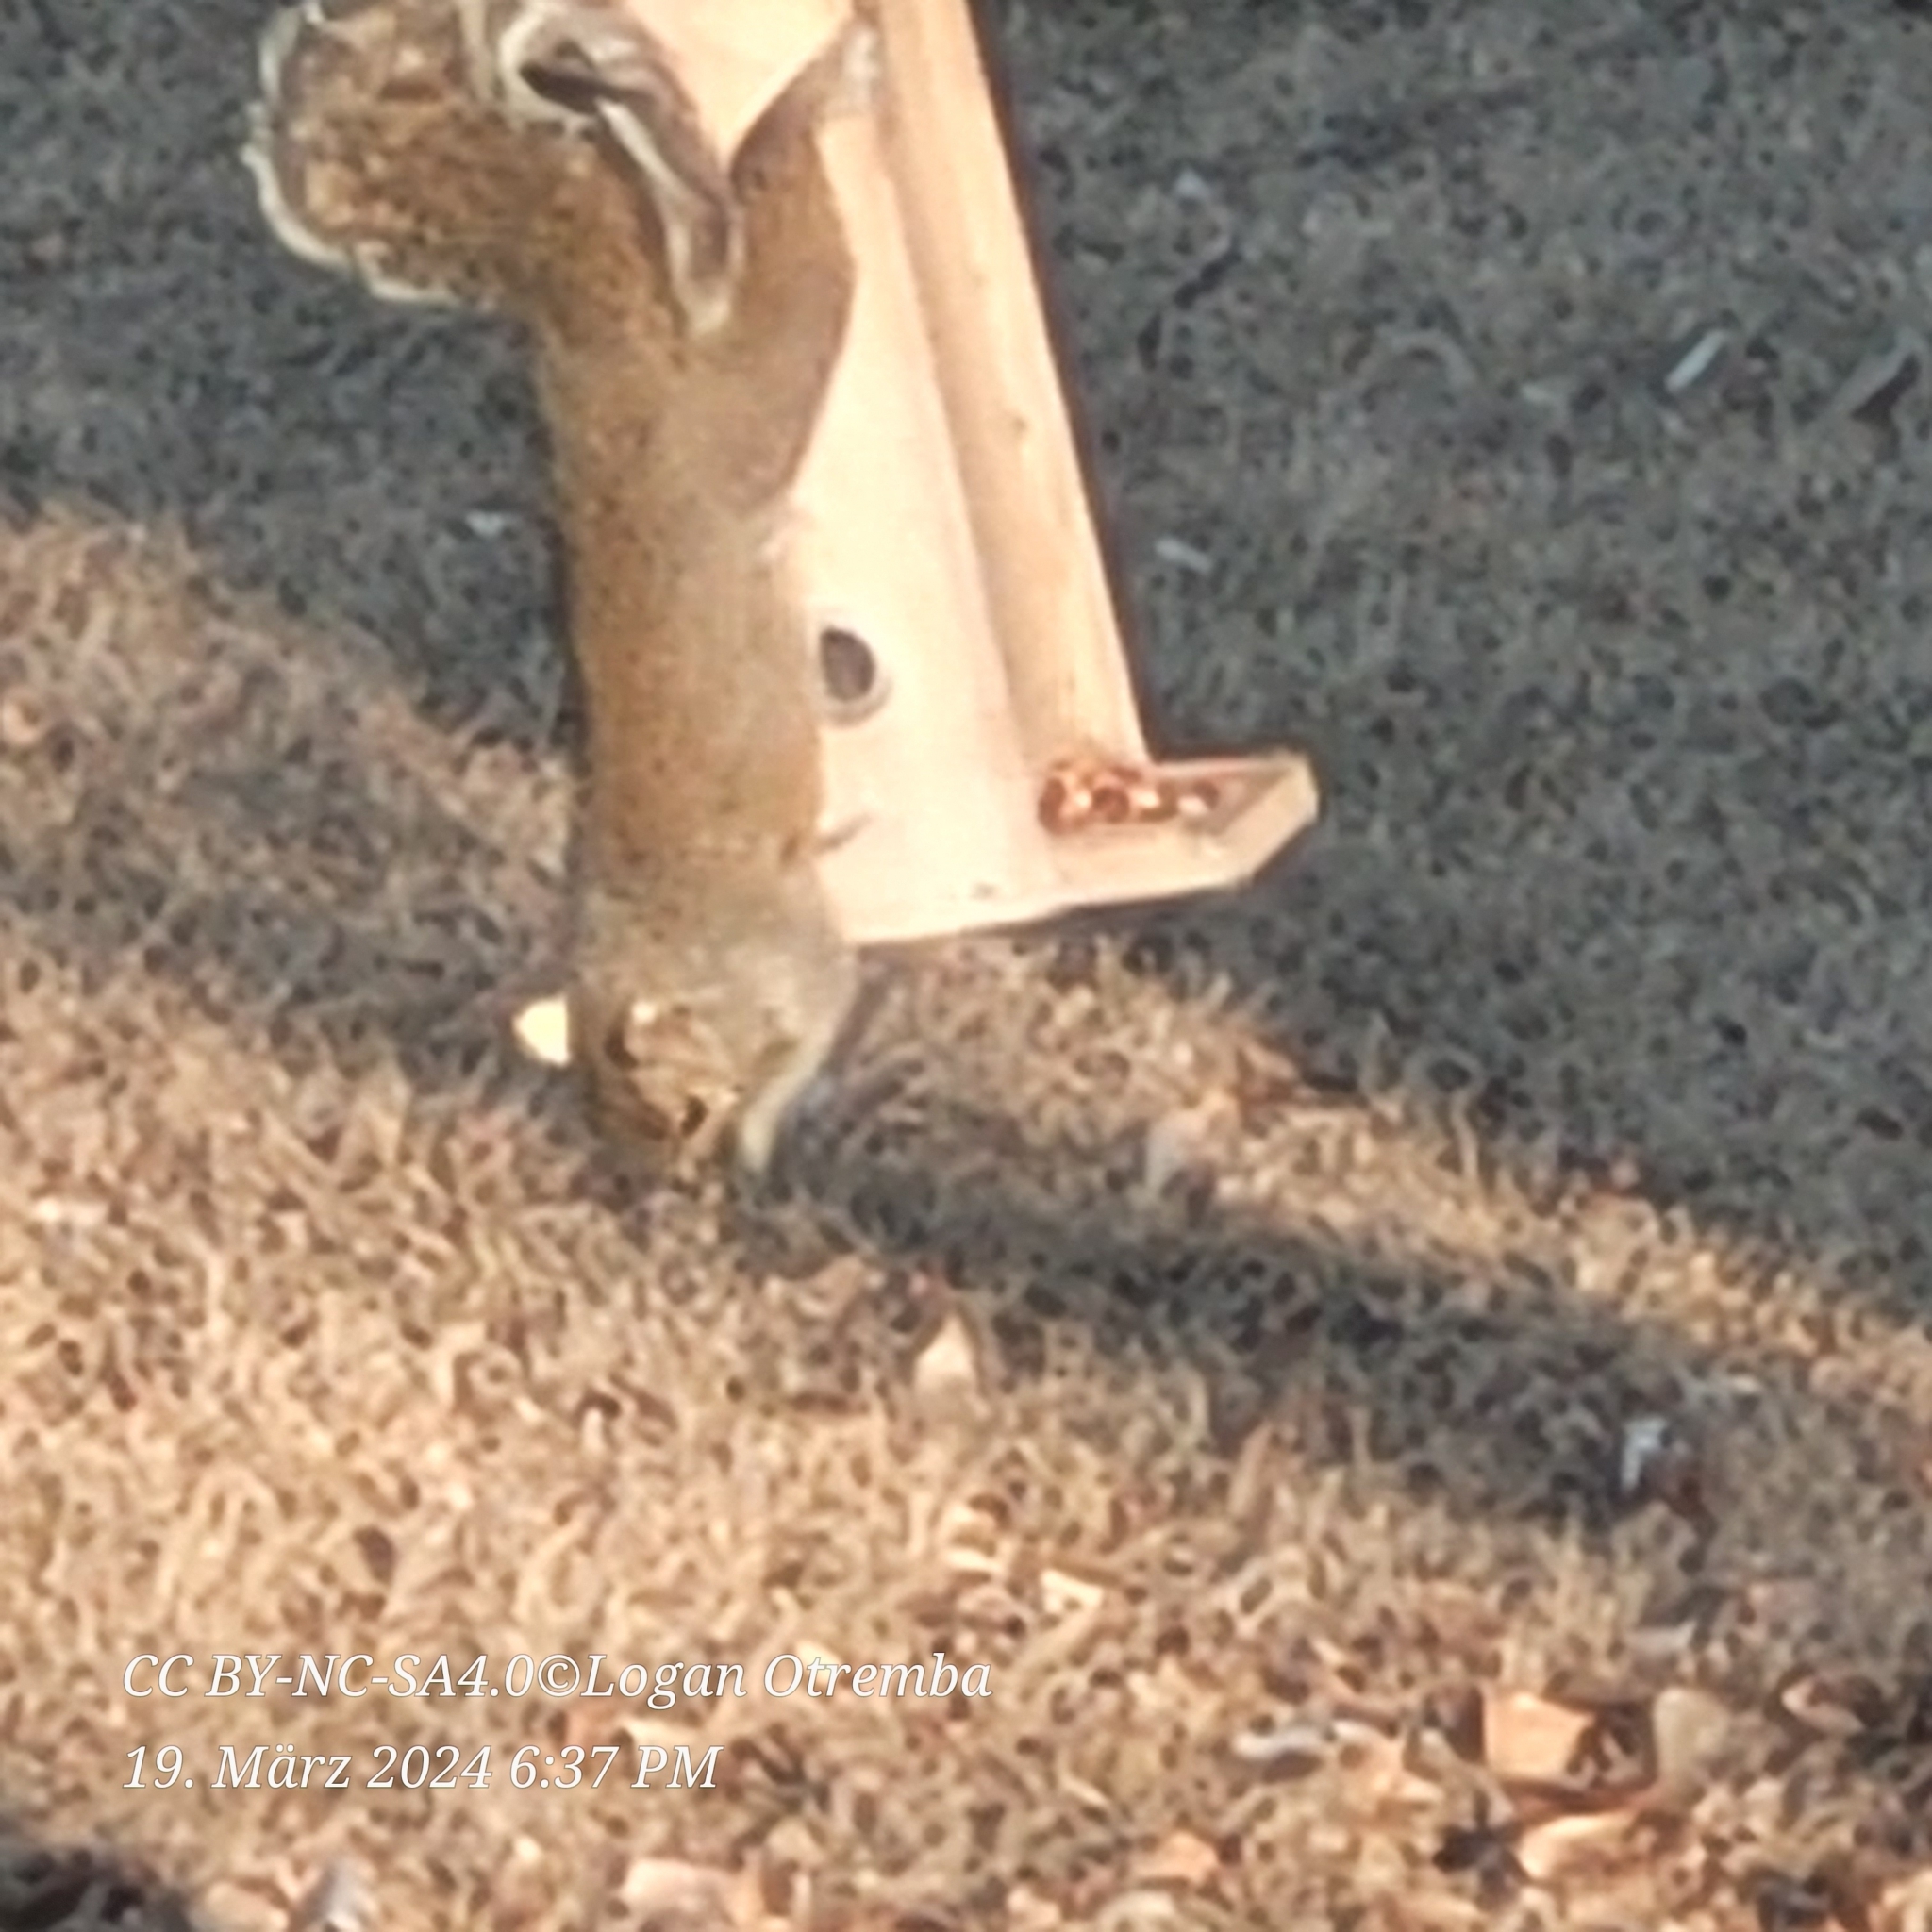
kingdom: Animalia
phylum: Chordata
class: Mammalia
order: Rodentia
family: Sciuridae
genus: Sciurus
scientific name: Sciurus carolinensis
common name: Eastern gray squirrel
